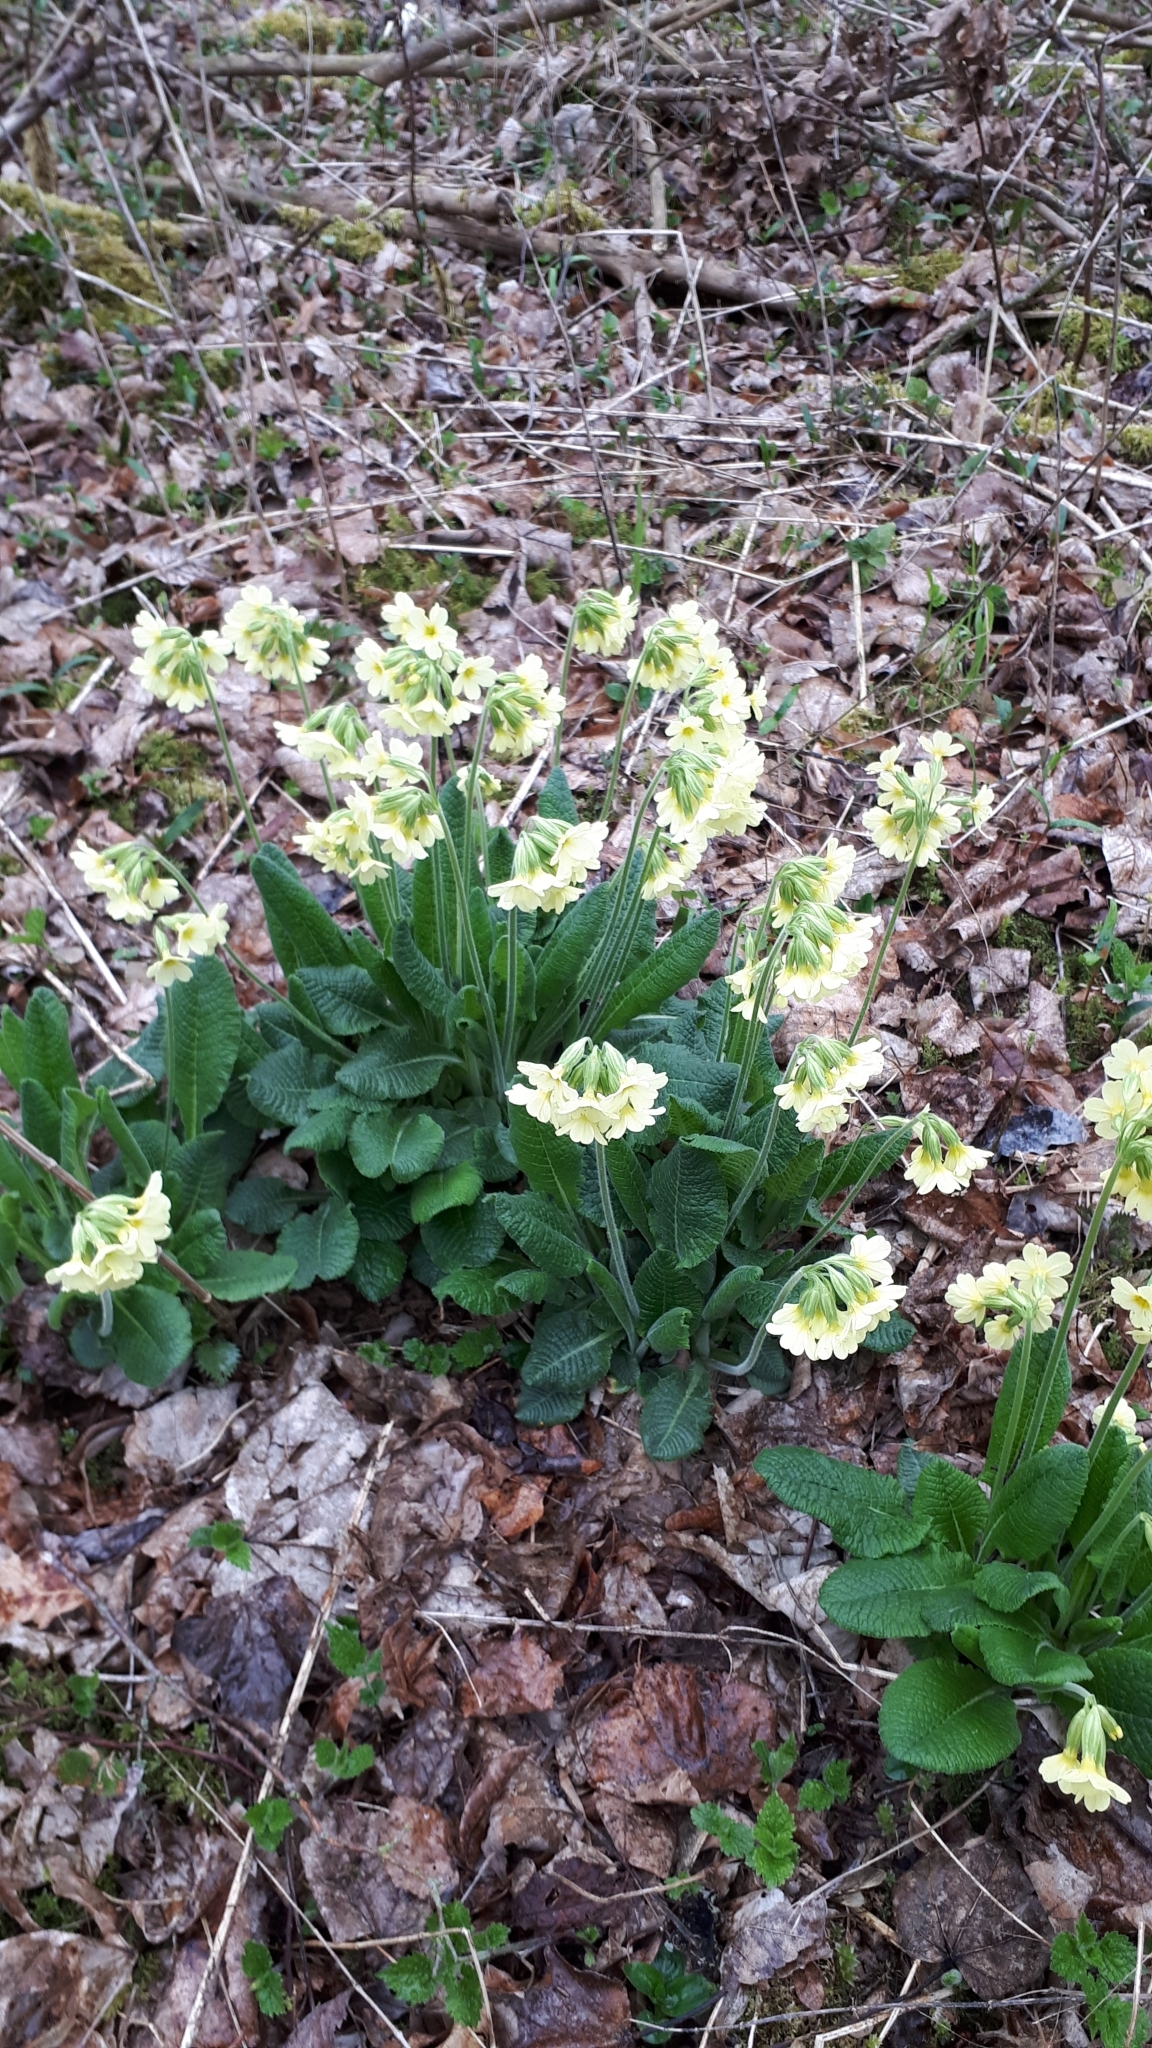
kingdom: Plantae
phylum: Tracheophyta
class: Magnoliopsida
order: Ericales
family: Primulaceae
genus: Primula
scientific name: Primula elatior
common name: Oxlip
